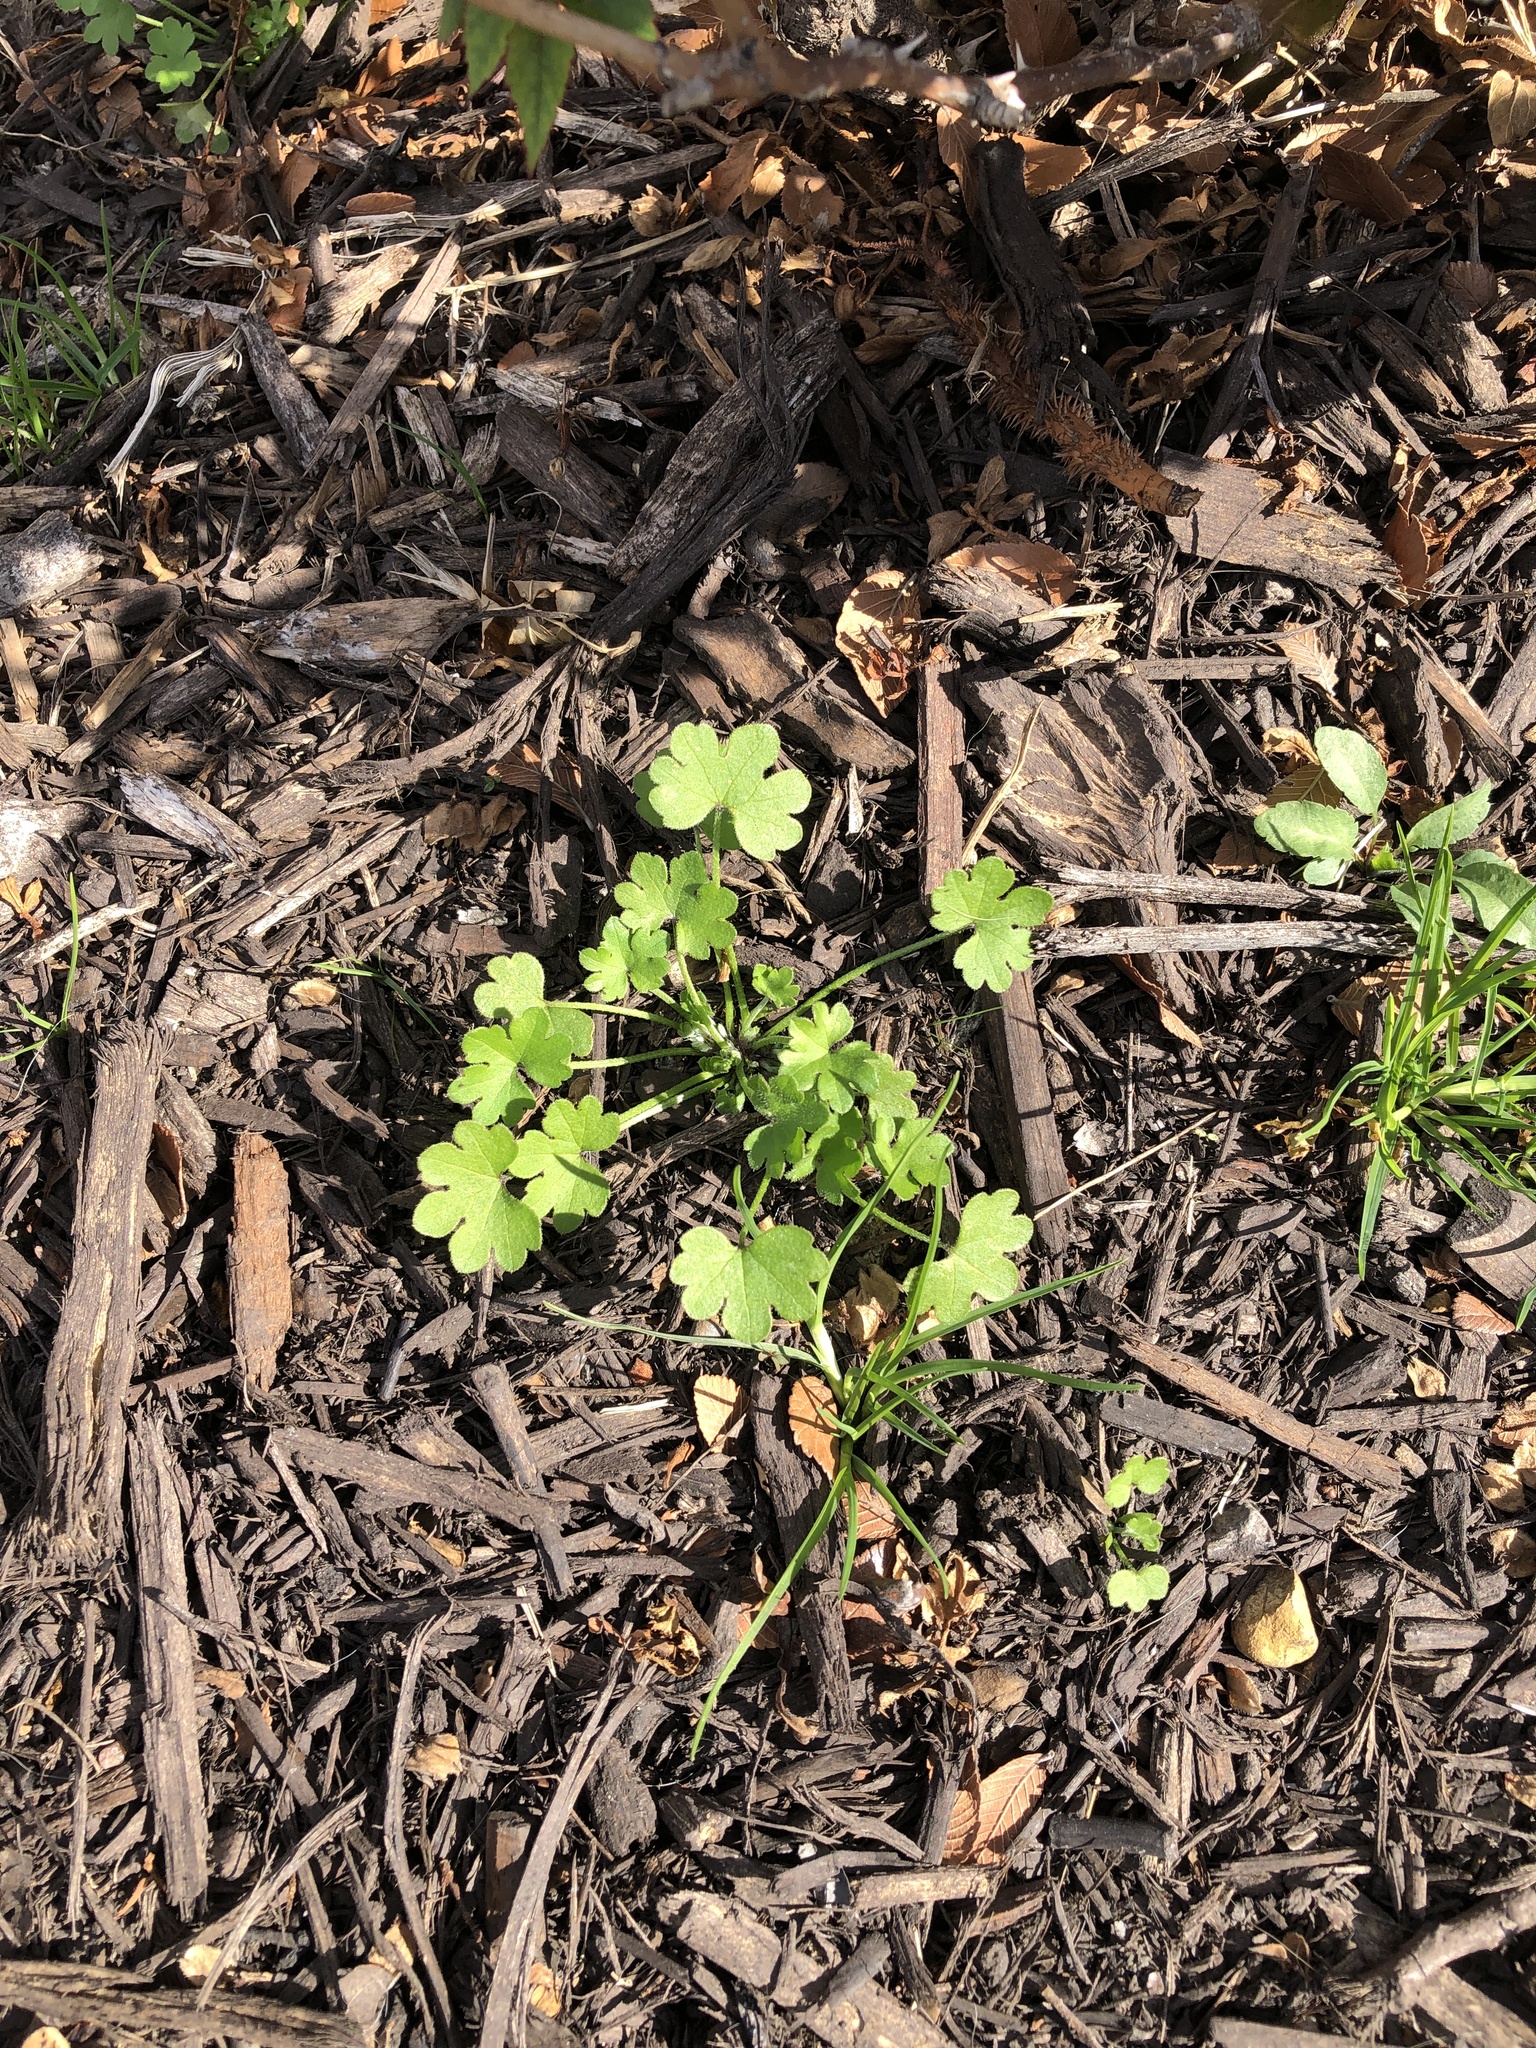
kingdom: Plantae
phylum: Tracheophyta
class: Magnoliopsida
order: Apiales
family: Apiaceae
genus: Bowlesia
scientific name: Bowlesia incana
